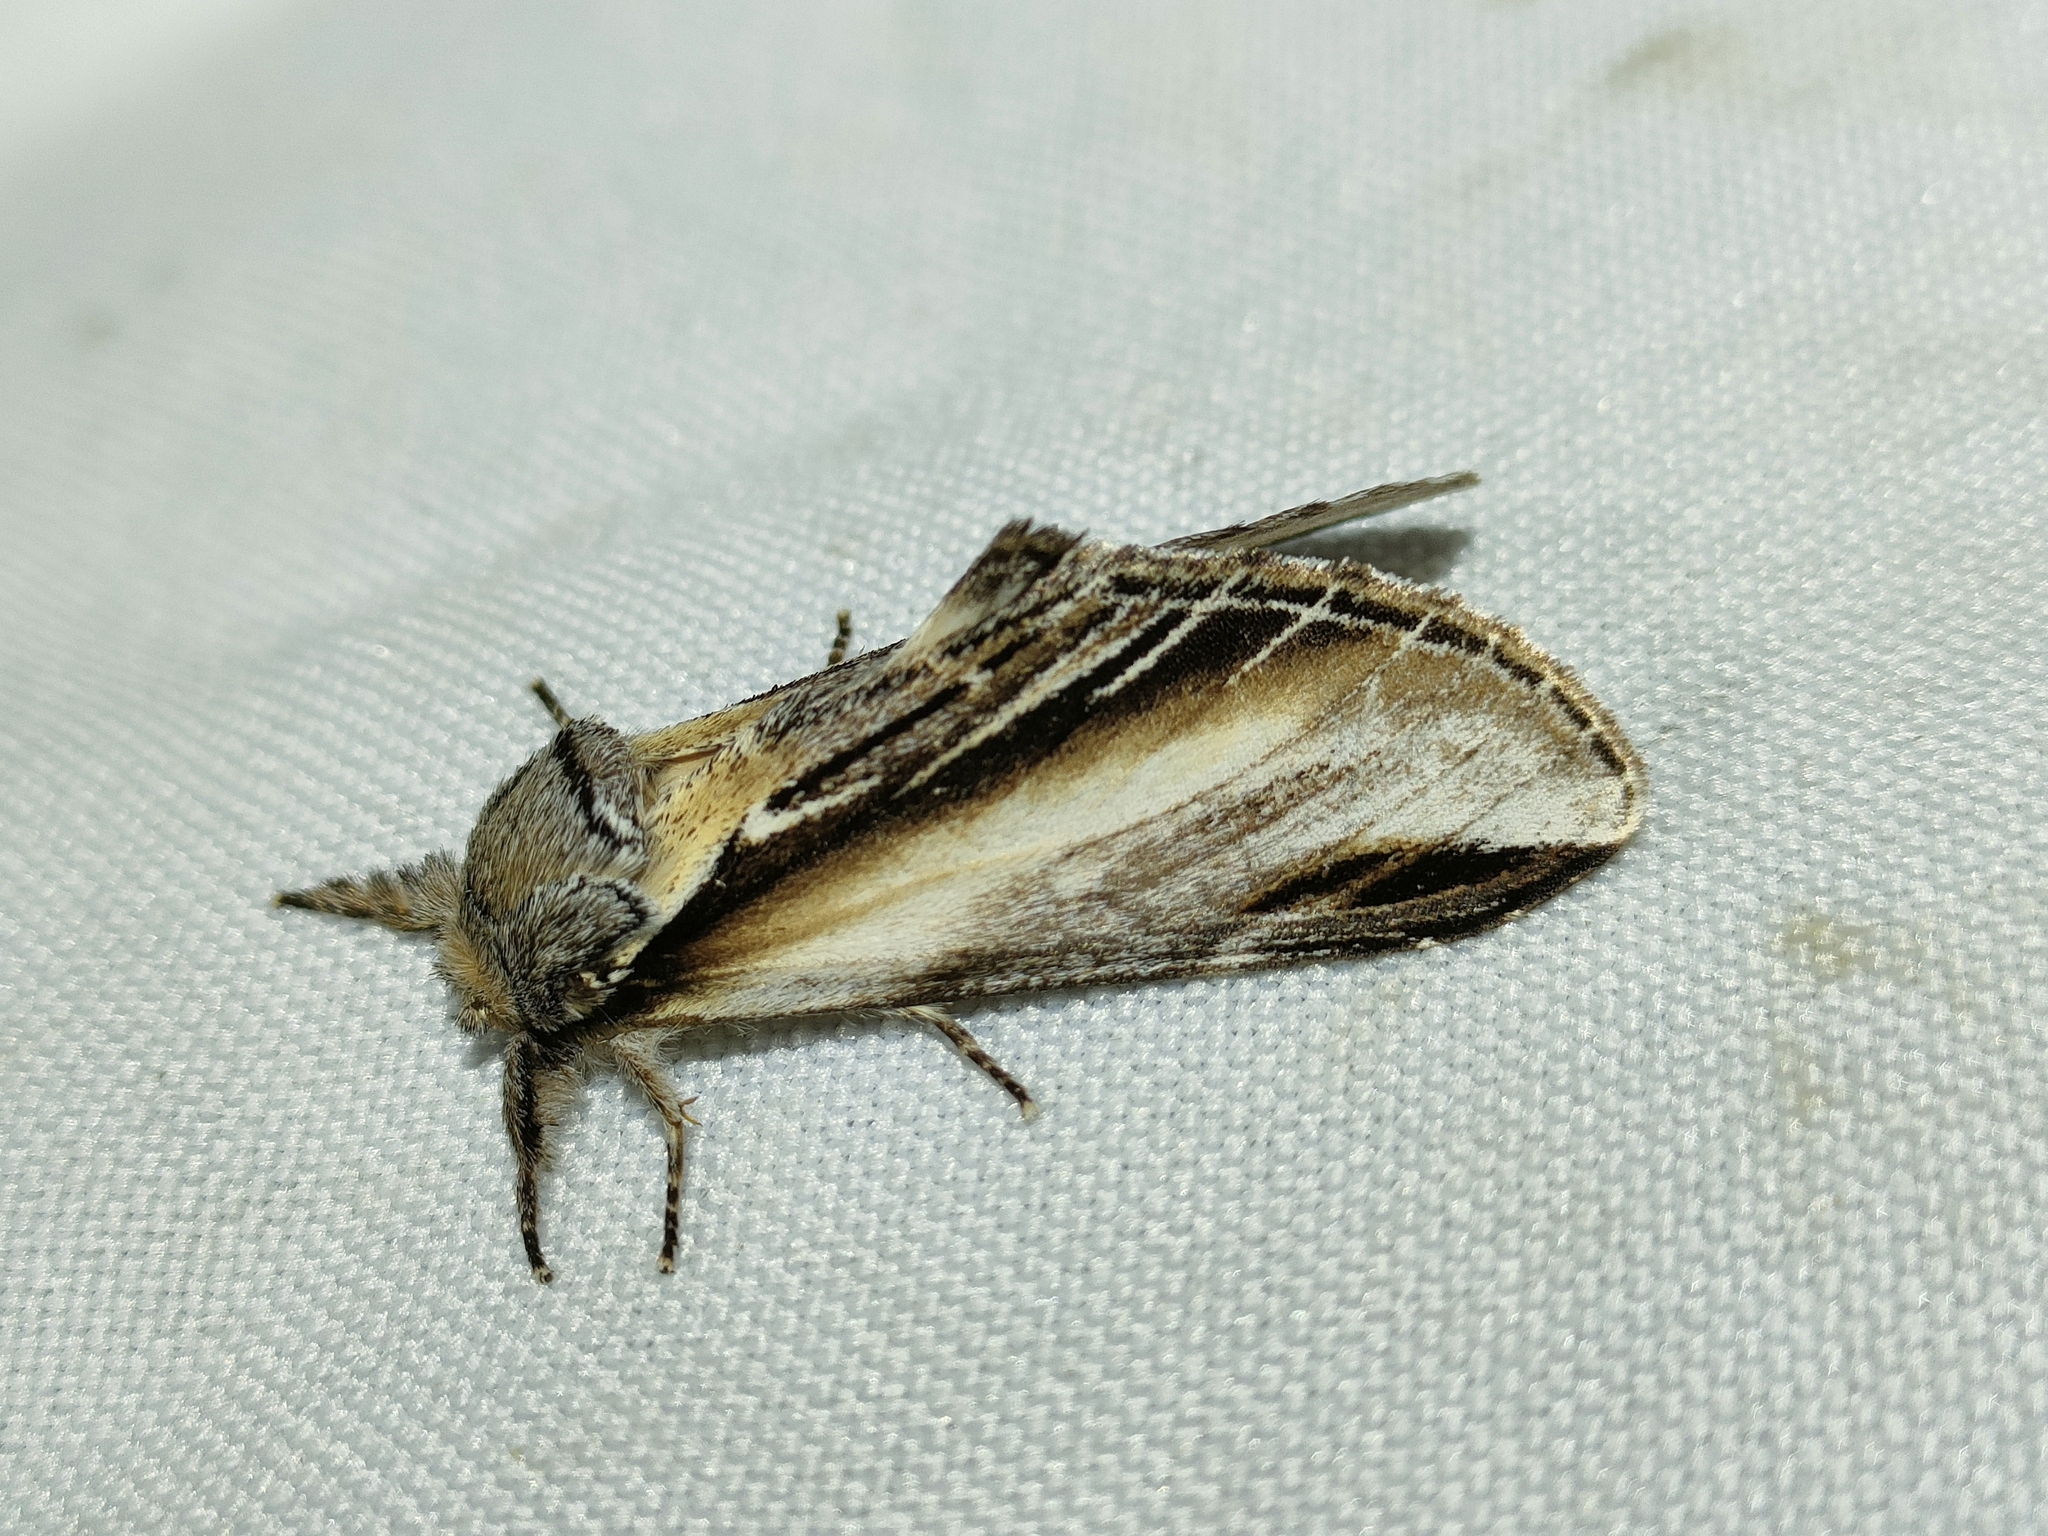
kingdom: Animalia
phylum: Arthropoda
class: Insecta
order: Lepidoptera
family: Notodontidae
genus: Pheosia
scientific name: Pheosia tremula
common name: Swallow prominent
